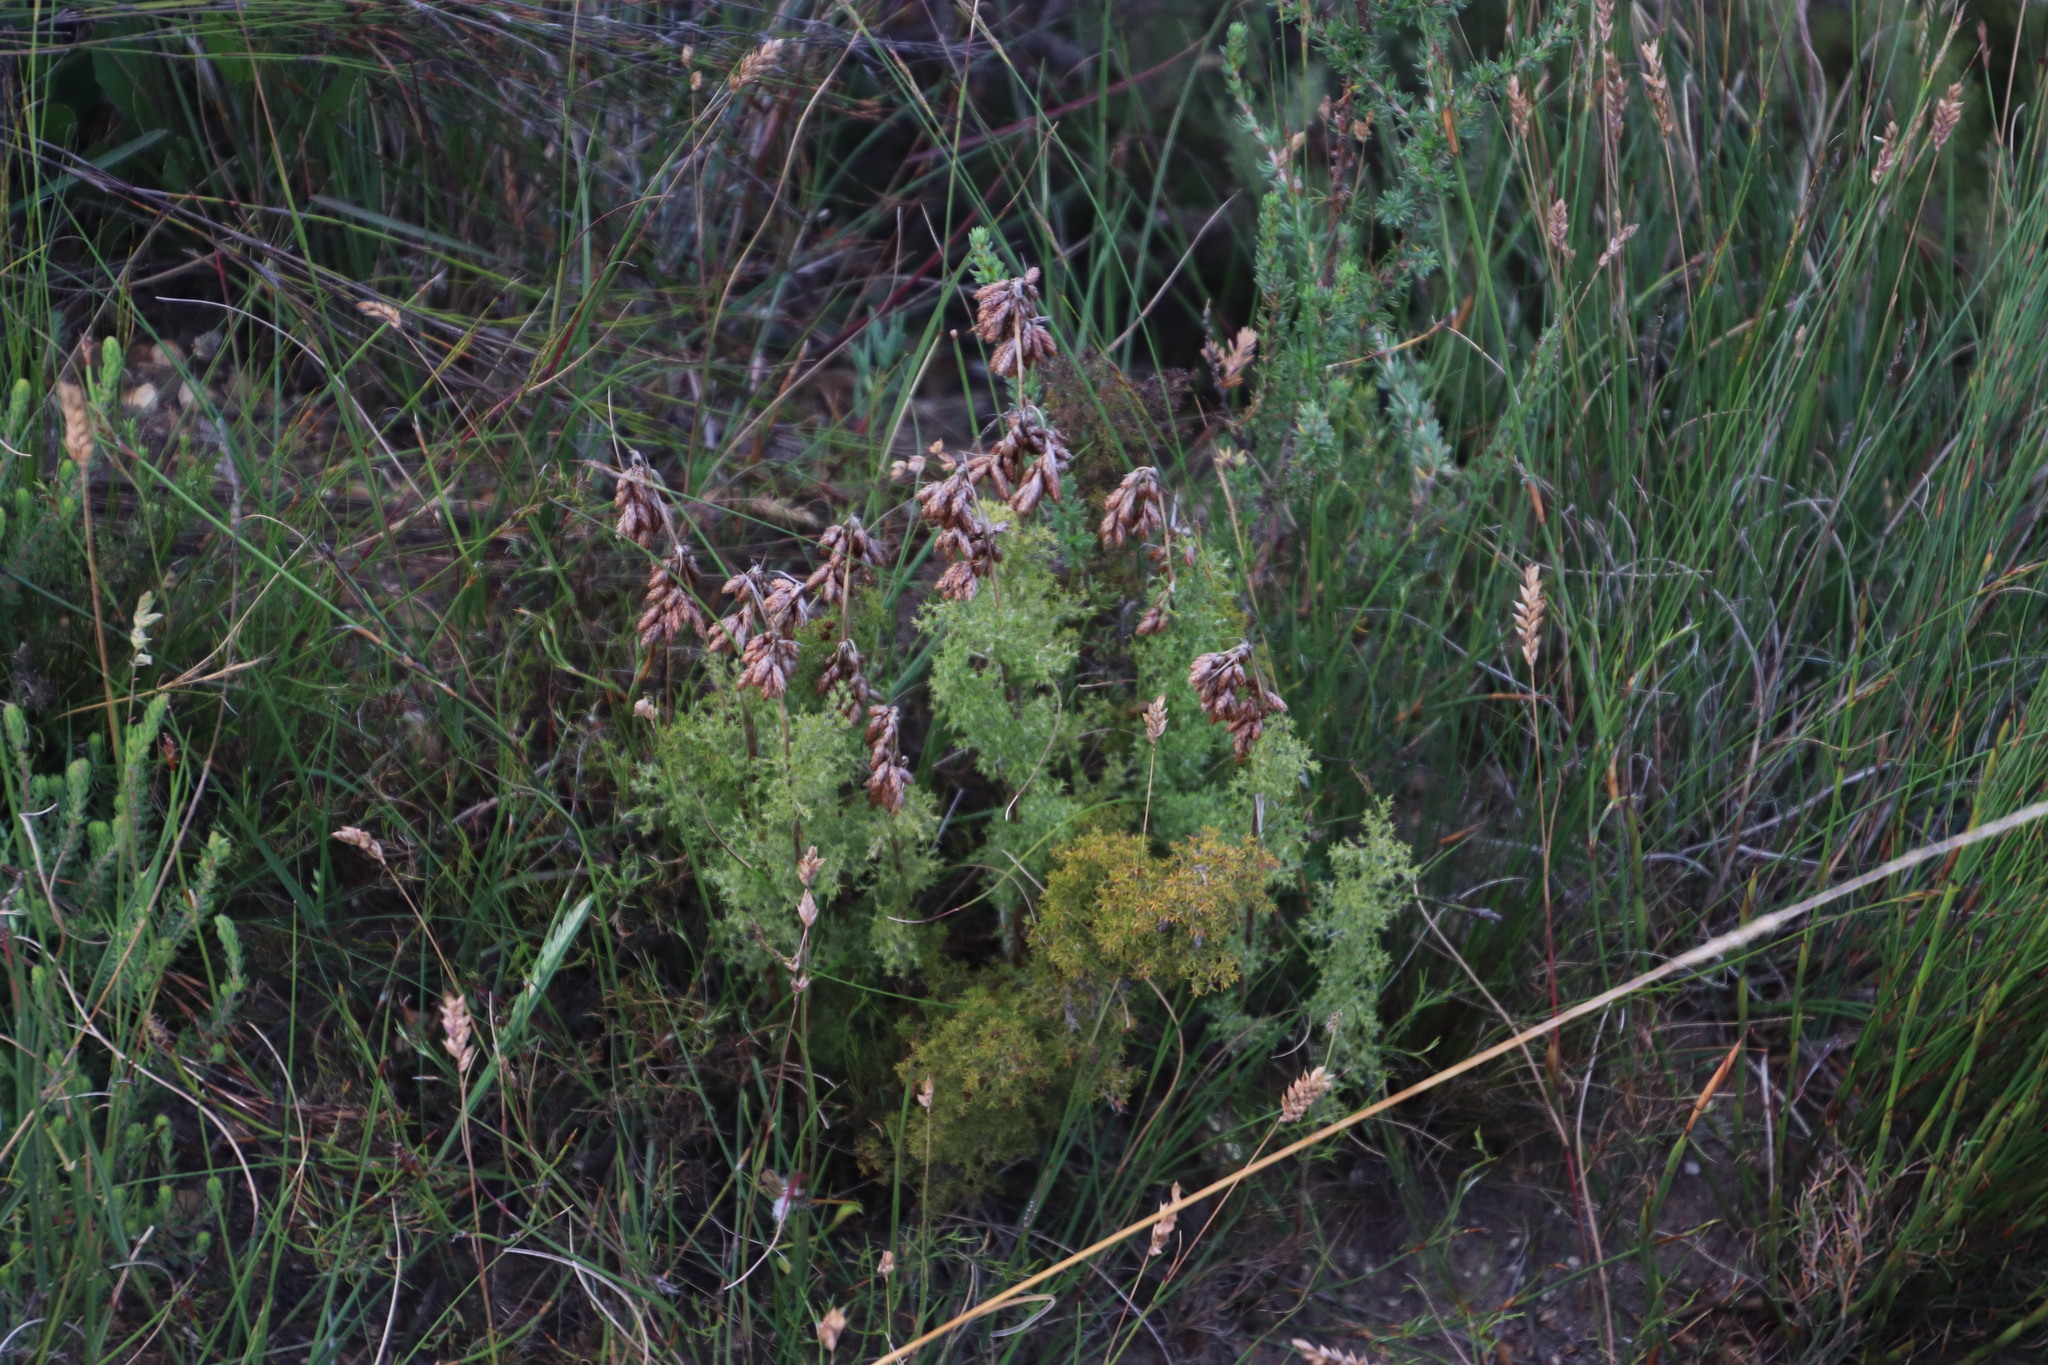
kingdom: Plantae
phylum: Tracheophyta
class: Liliopsida
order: Poales
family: Restionaceae
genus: Thamnochortus
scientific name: Thamnochortus fruticosus
